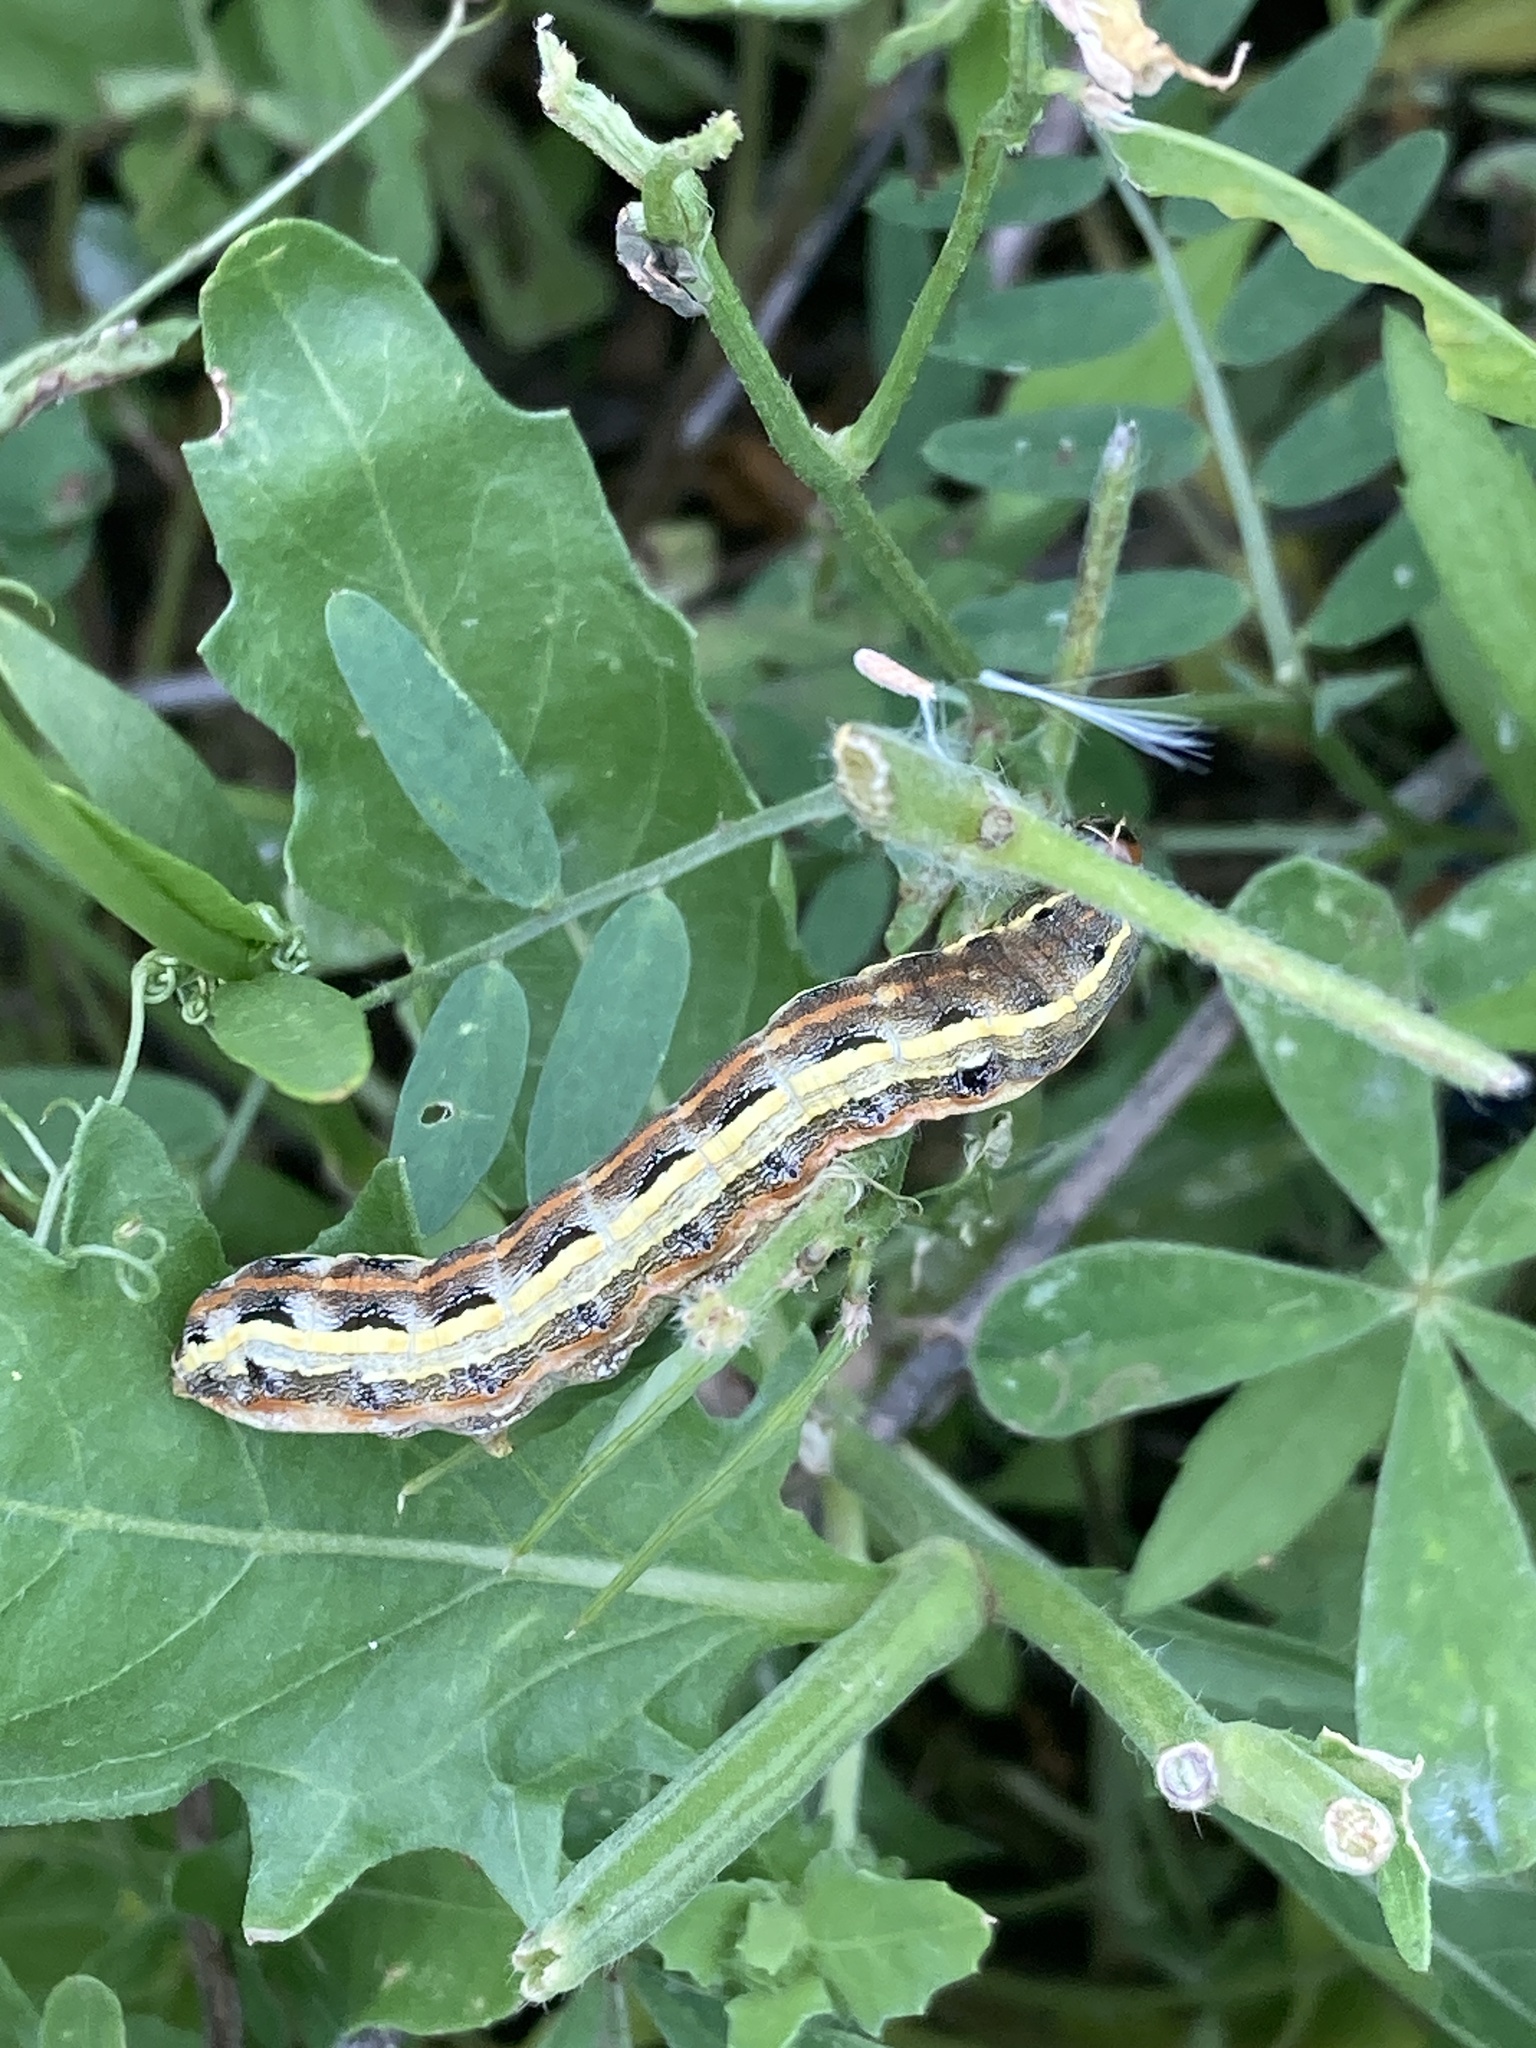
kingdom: Animalia
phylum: Arthropoda
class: Insecta
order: Lepidoptera
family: Noctuidae
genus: Spodoptera
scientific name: Spodoptera ornithogalli
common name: Yellow-striped armyworm
